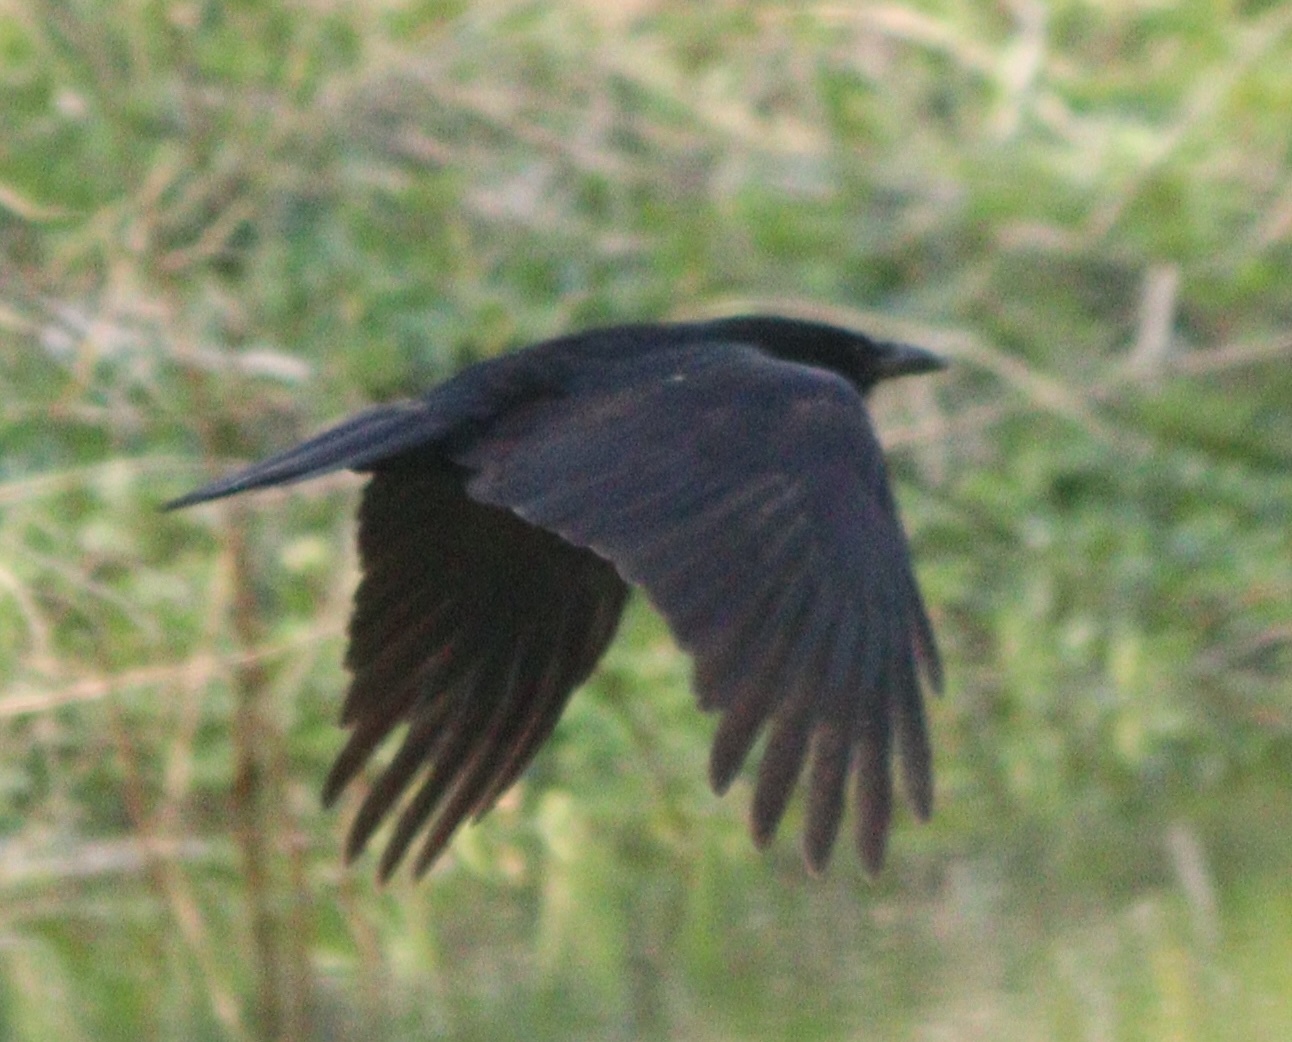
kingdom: Animalia
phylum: Chordata
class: Aves
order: Passeriformes
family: Corvidae
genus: Corvus
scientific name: Corvus corone
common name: Carrion crow
